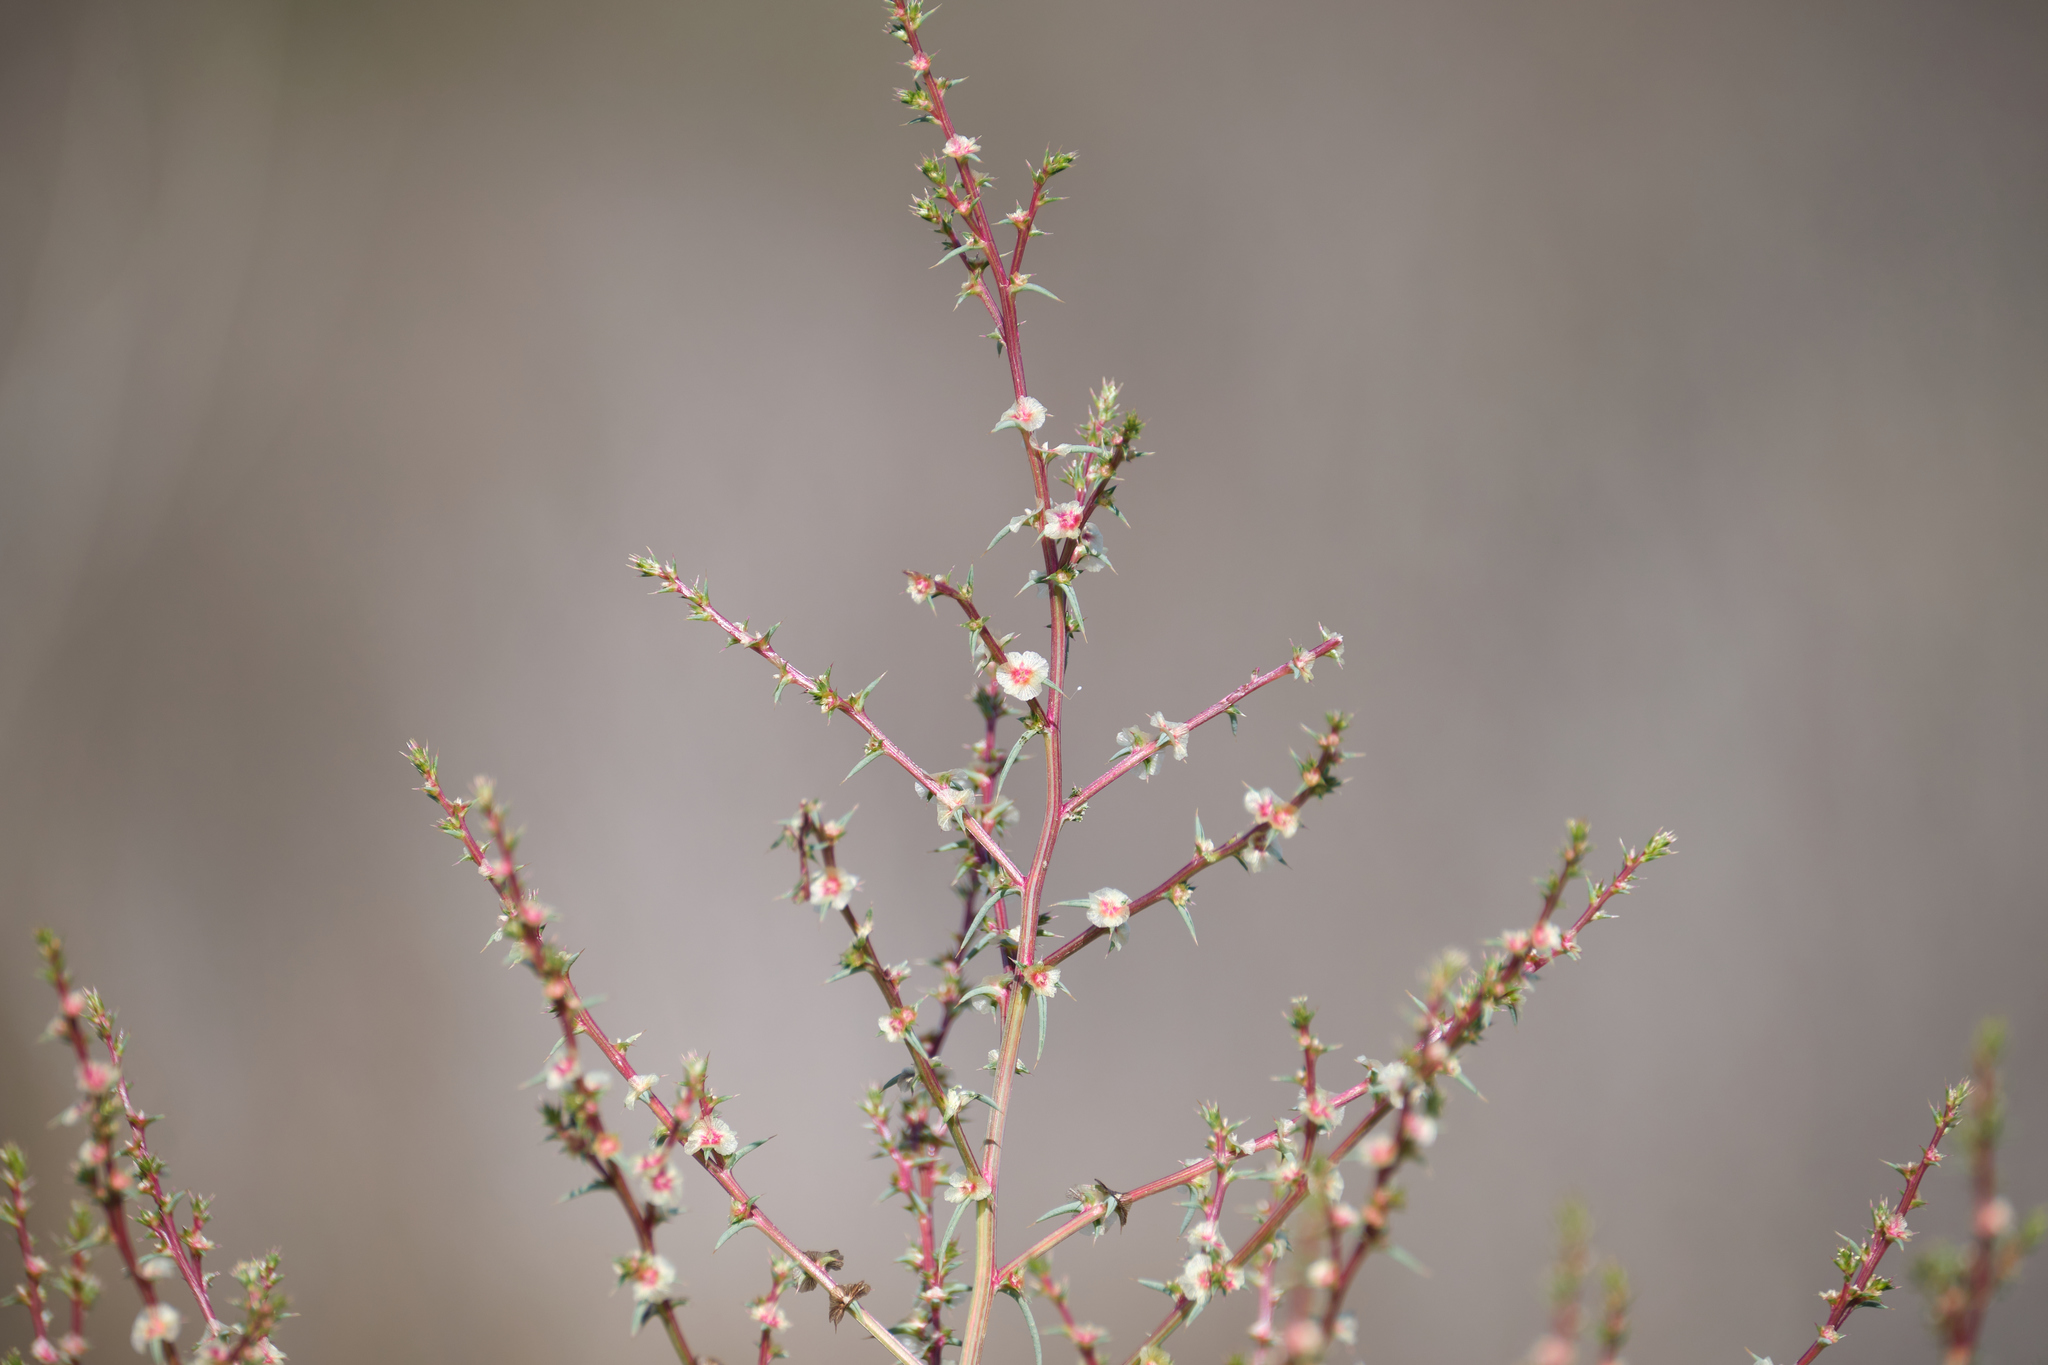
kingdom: Plantae
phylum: Tracheophyta
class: Magnoliopsida
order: Caryophyllales
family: Amaranthaceae
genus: Salsola
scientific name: Salsola australis
